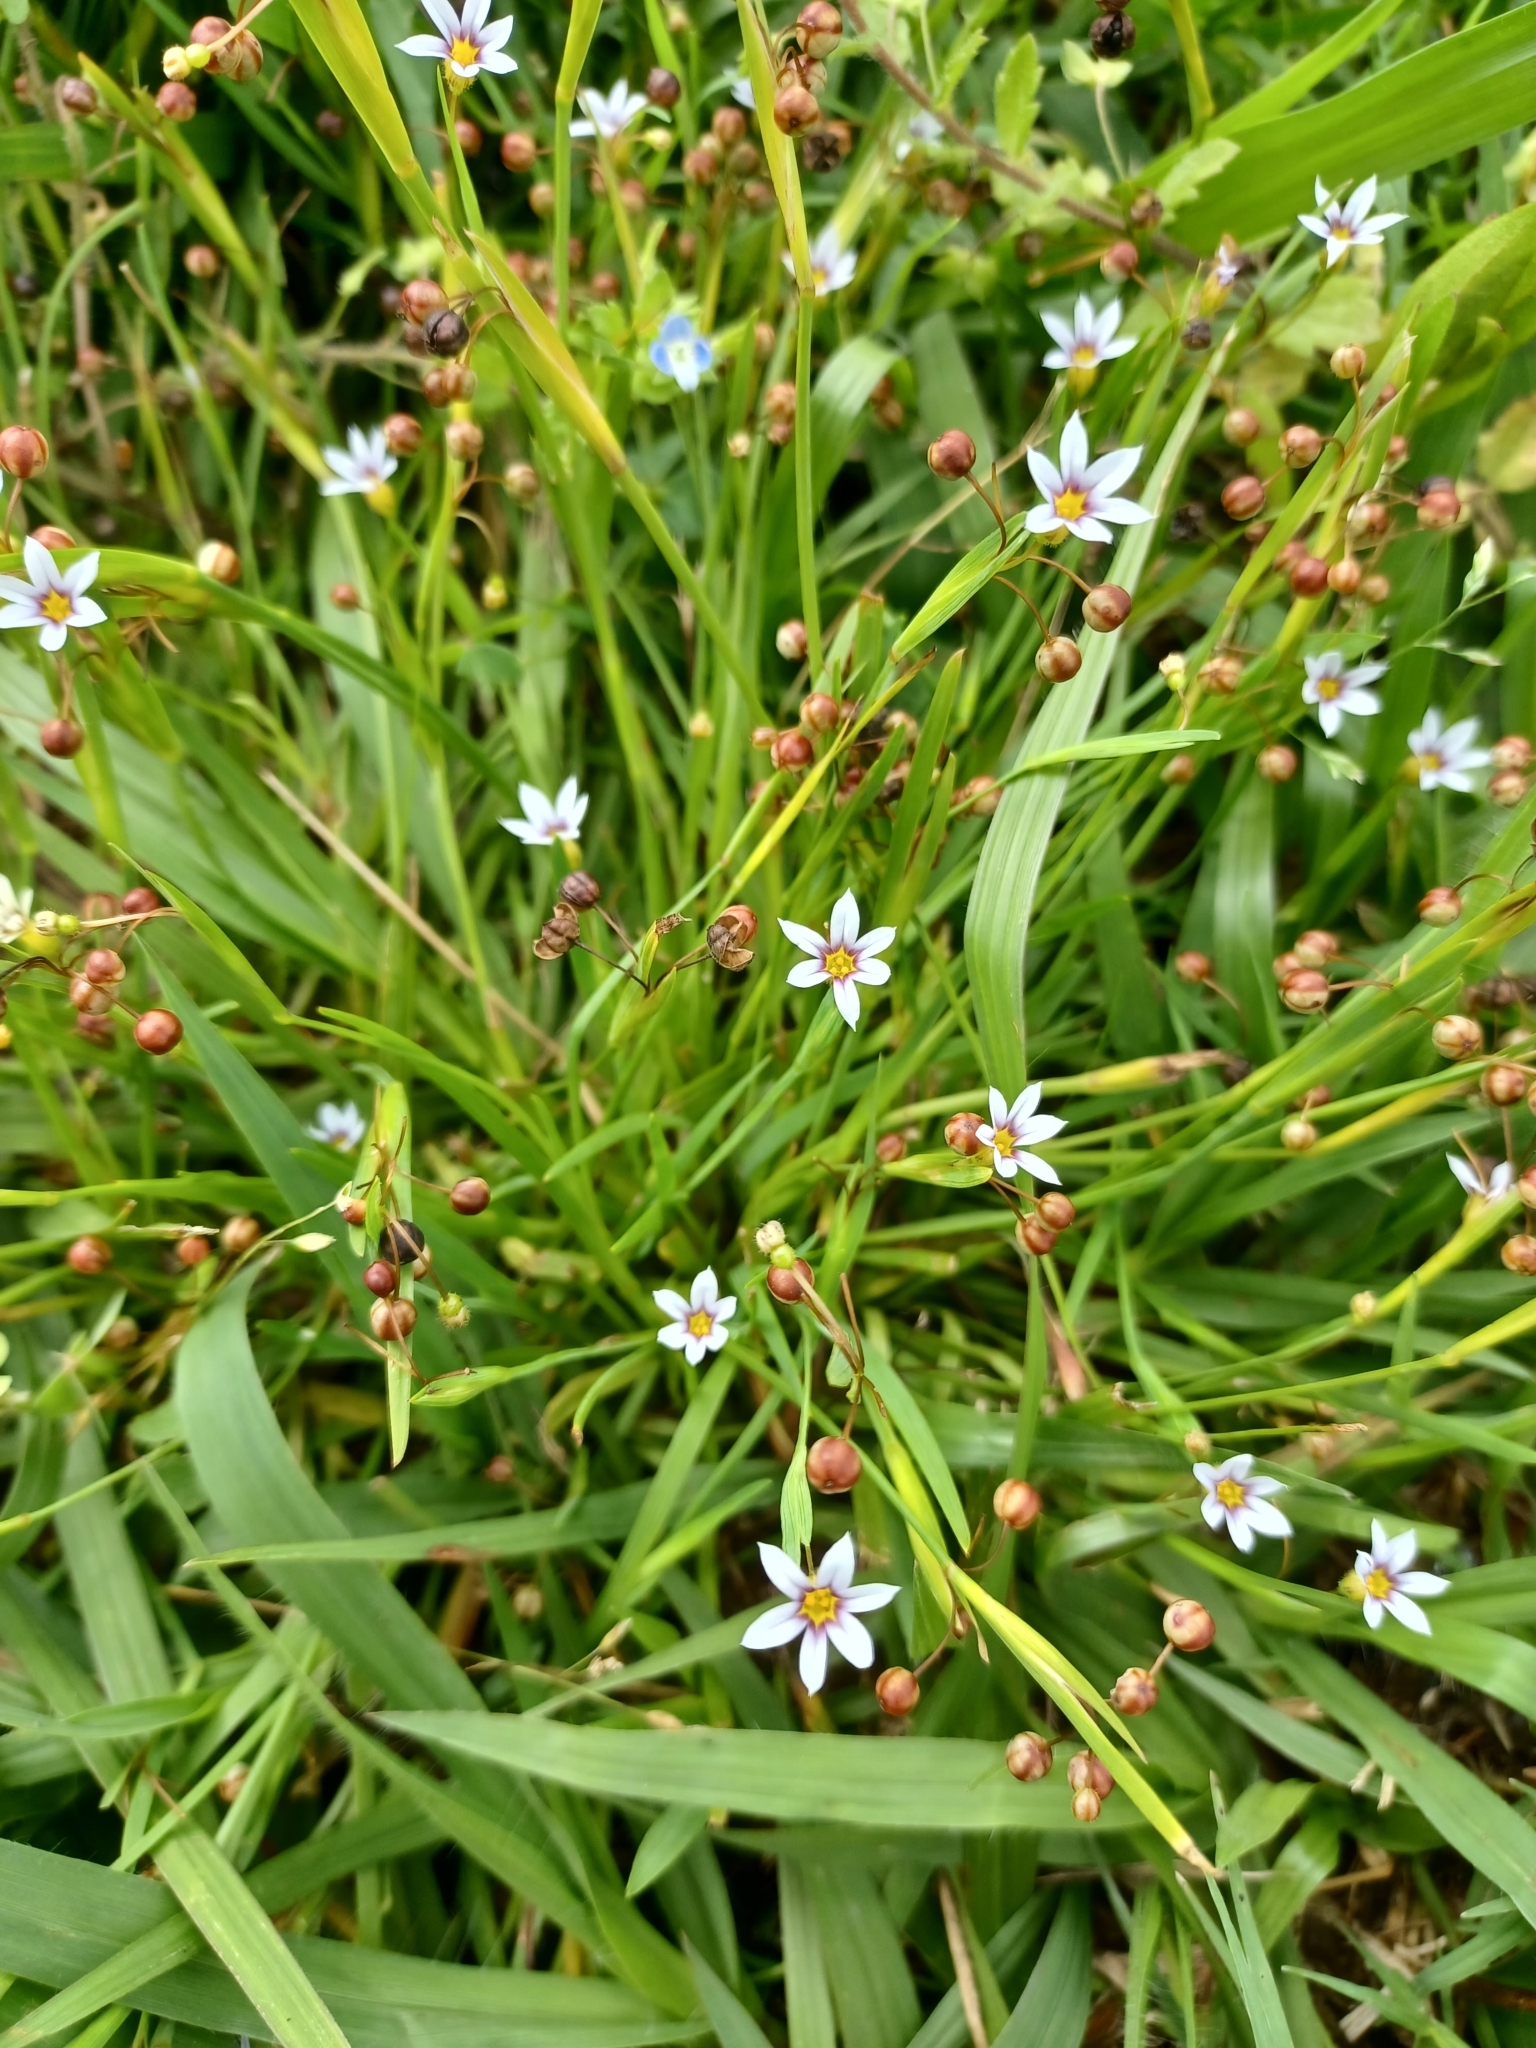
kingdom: Plantae
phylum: Tracheophyta
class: Liliopsida
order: Asparagales
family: Iridaceae
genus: Sisyrinchium
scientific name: Sisyrinchium micranthum
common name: Bermuda pigroot
